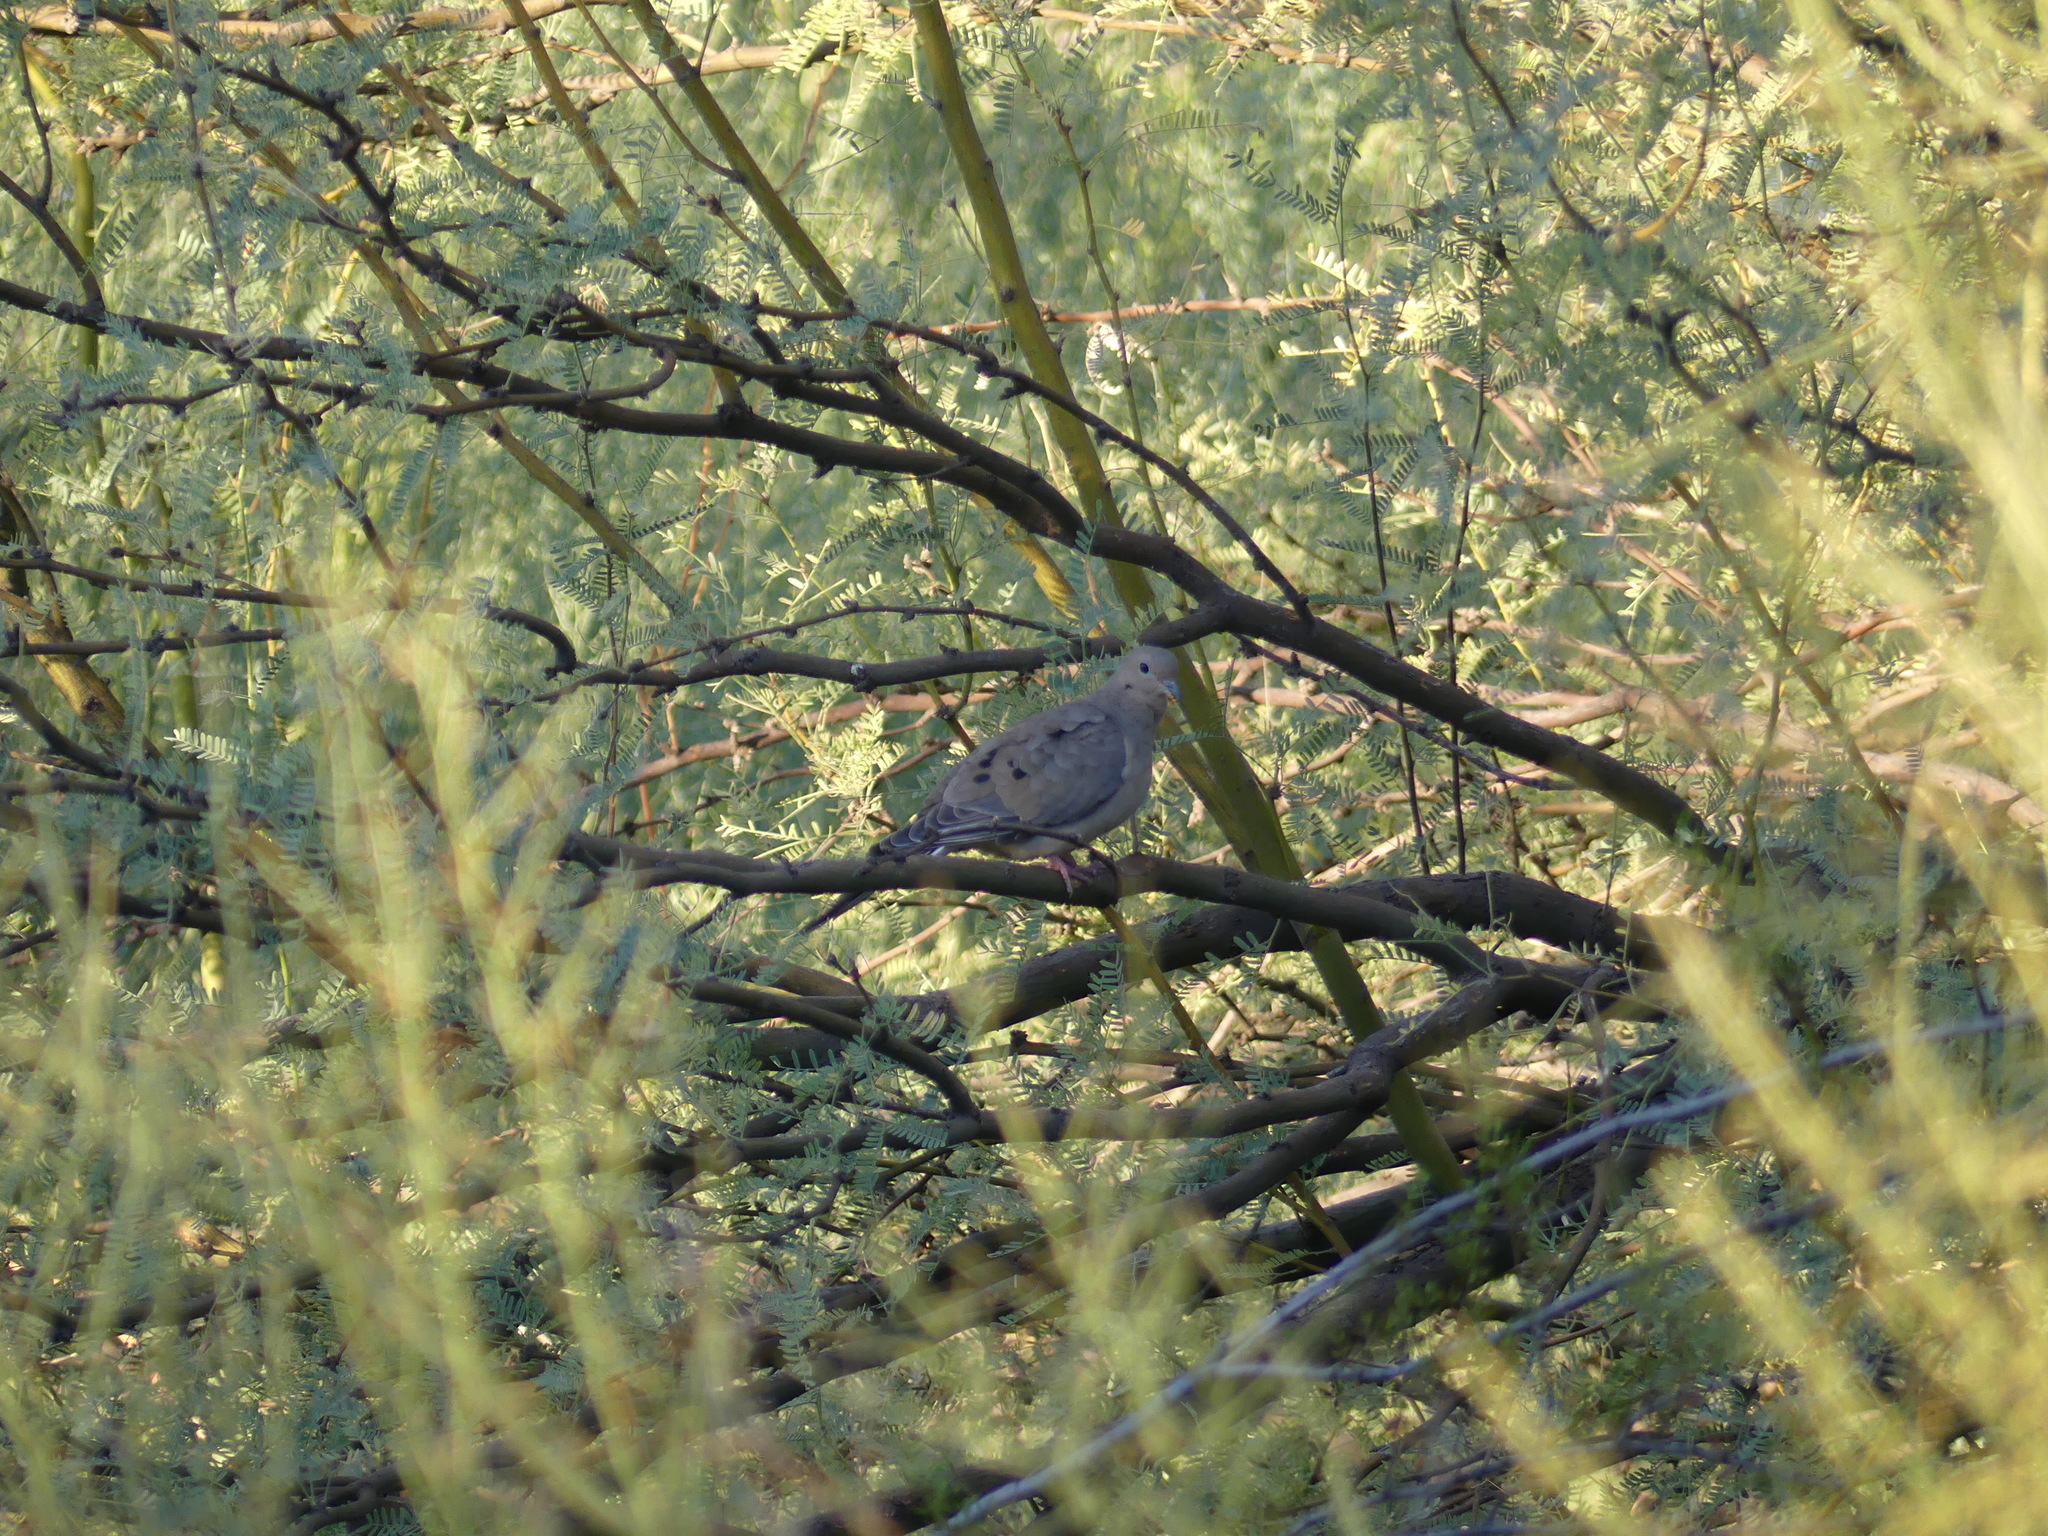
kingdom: Animalia
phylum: Chordata
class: Aves
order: Columbiformes
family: Columbidae
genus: Zenaida
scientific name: Zenaida macroura
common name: Mourning dove
